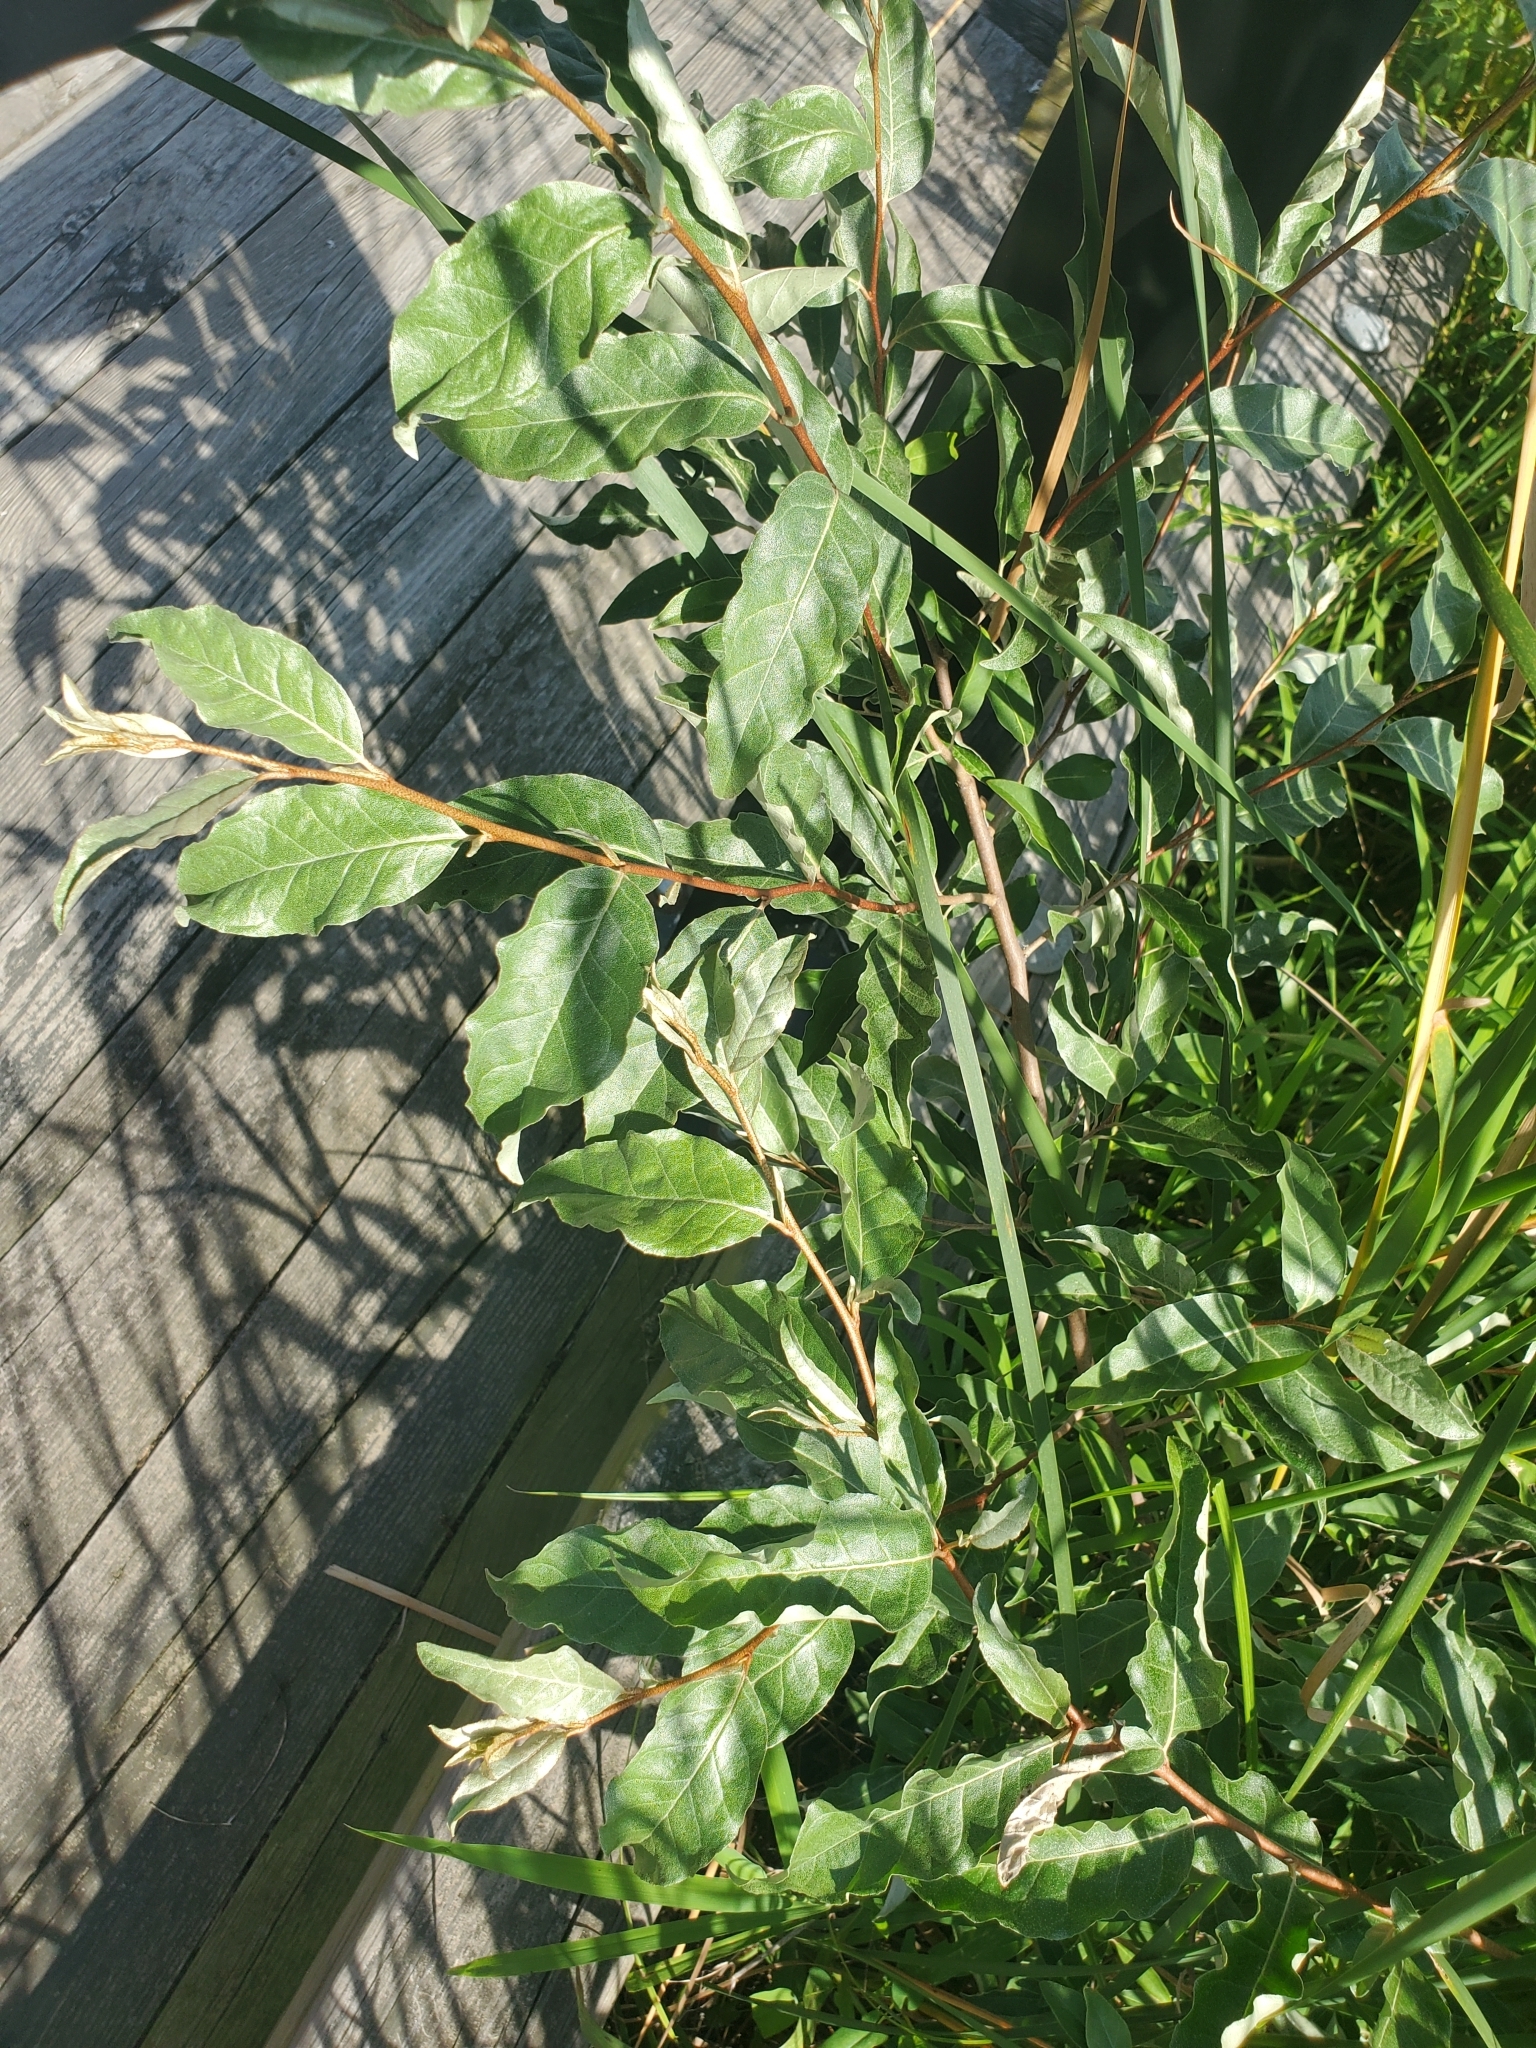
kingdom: Plantae
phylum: Tracheophyta
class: Magnoliopsida
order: Rosales
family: Elaeagnaceae
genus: Elaeagnus
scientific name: Elaeagnus umbellata
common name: Autumn olive
